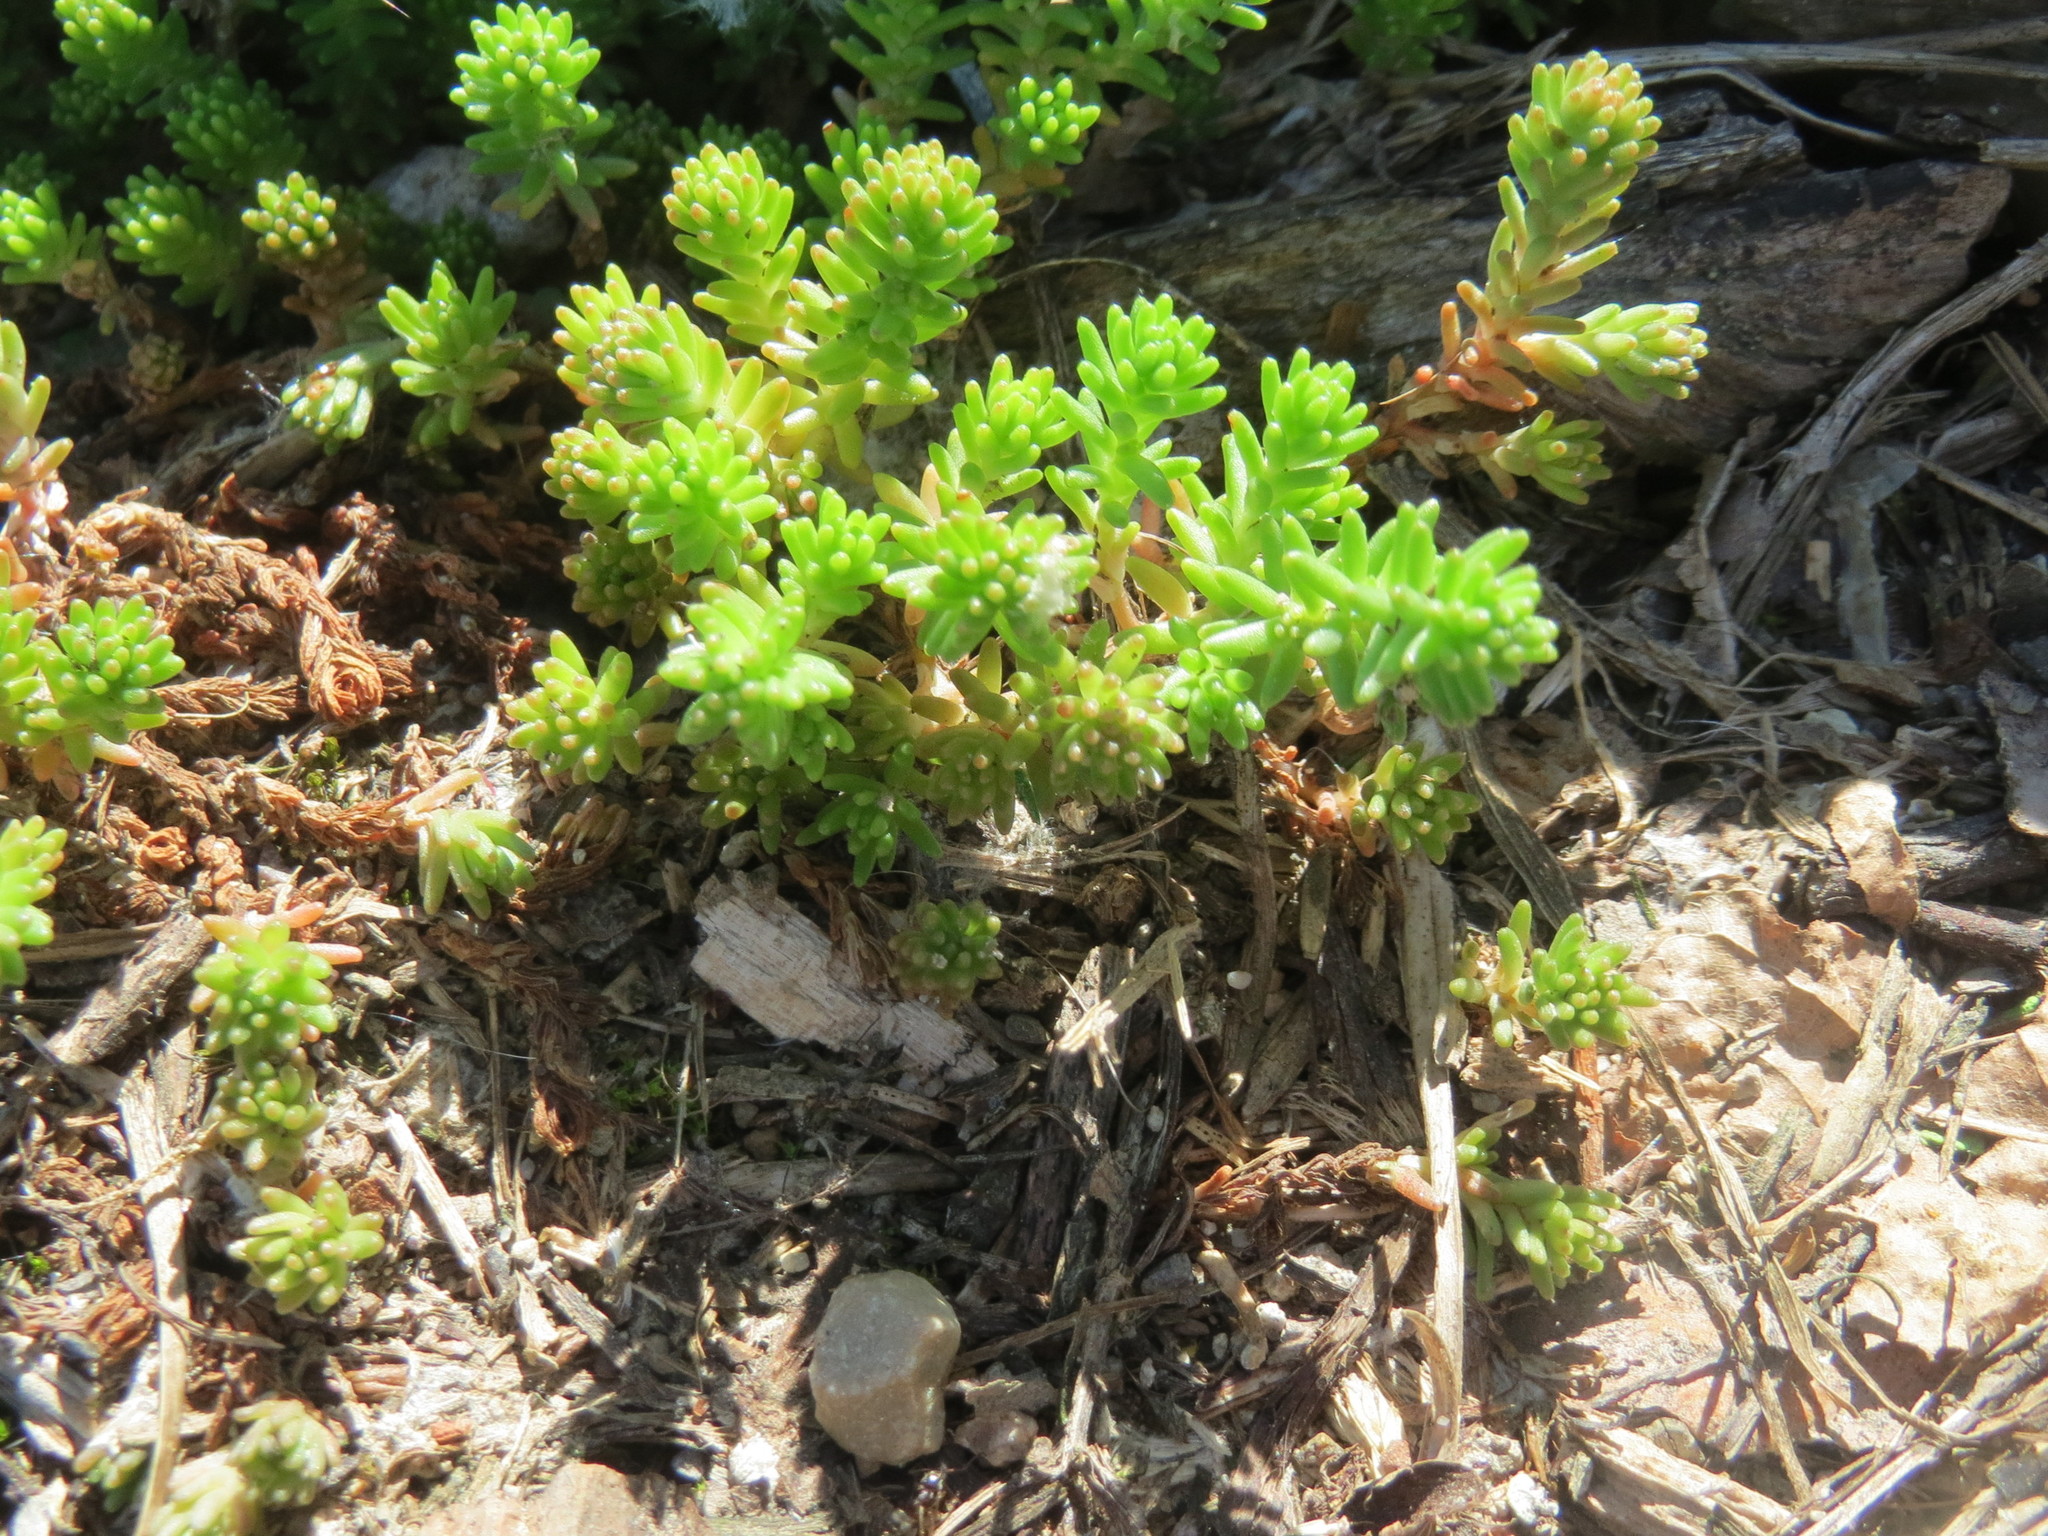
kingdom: Plantae
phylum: Tracheophyta
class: Magnoliopsida
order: Saxifragales
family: Crassulaceae
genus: Sedum
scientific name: Sedum sexangulare
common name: Tasteless stonecrop
